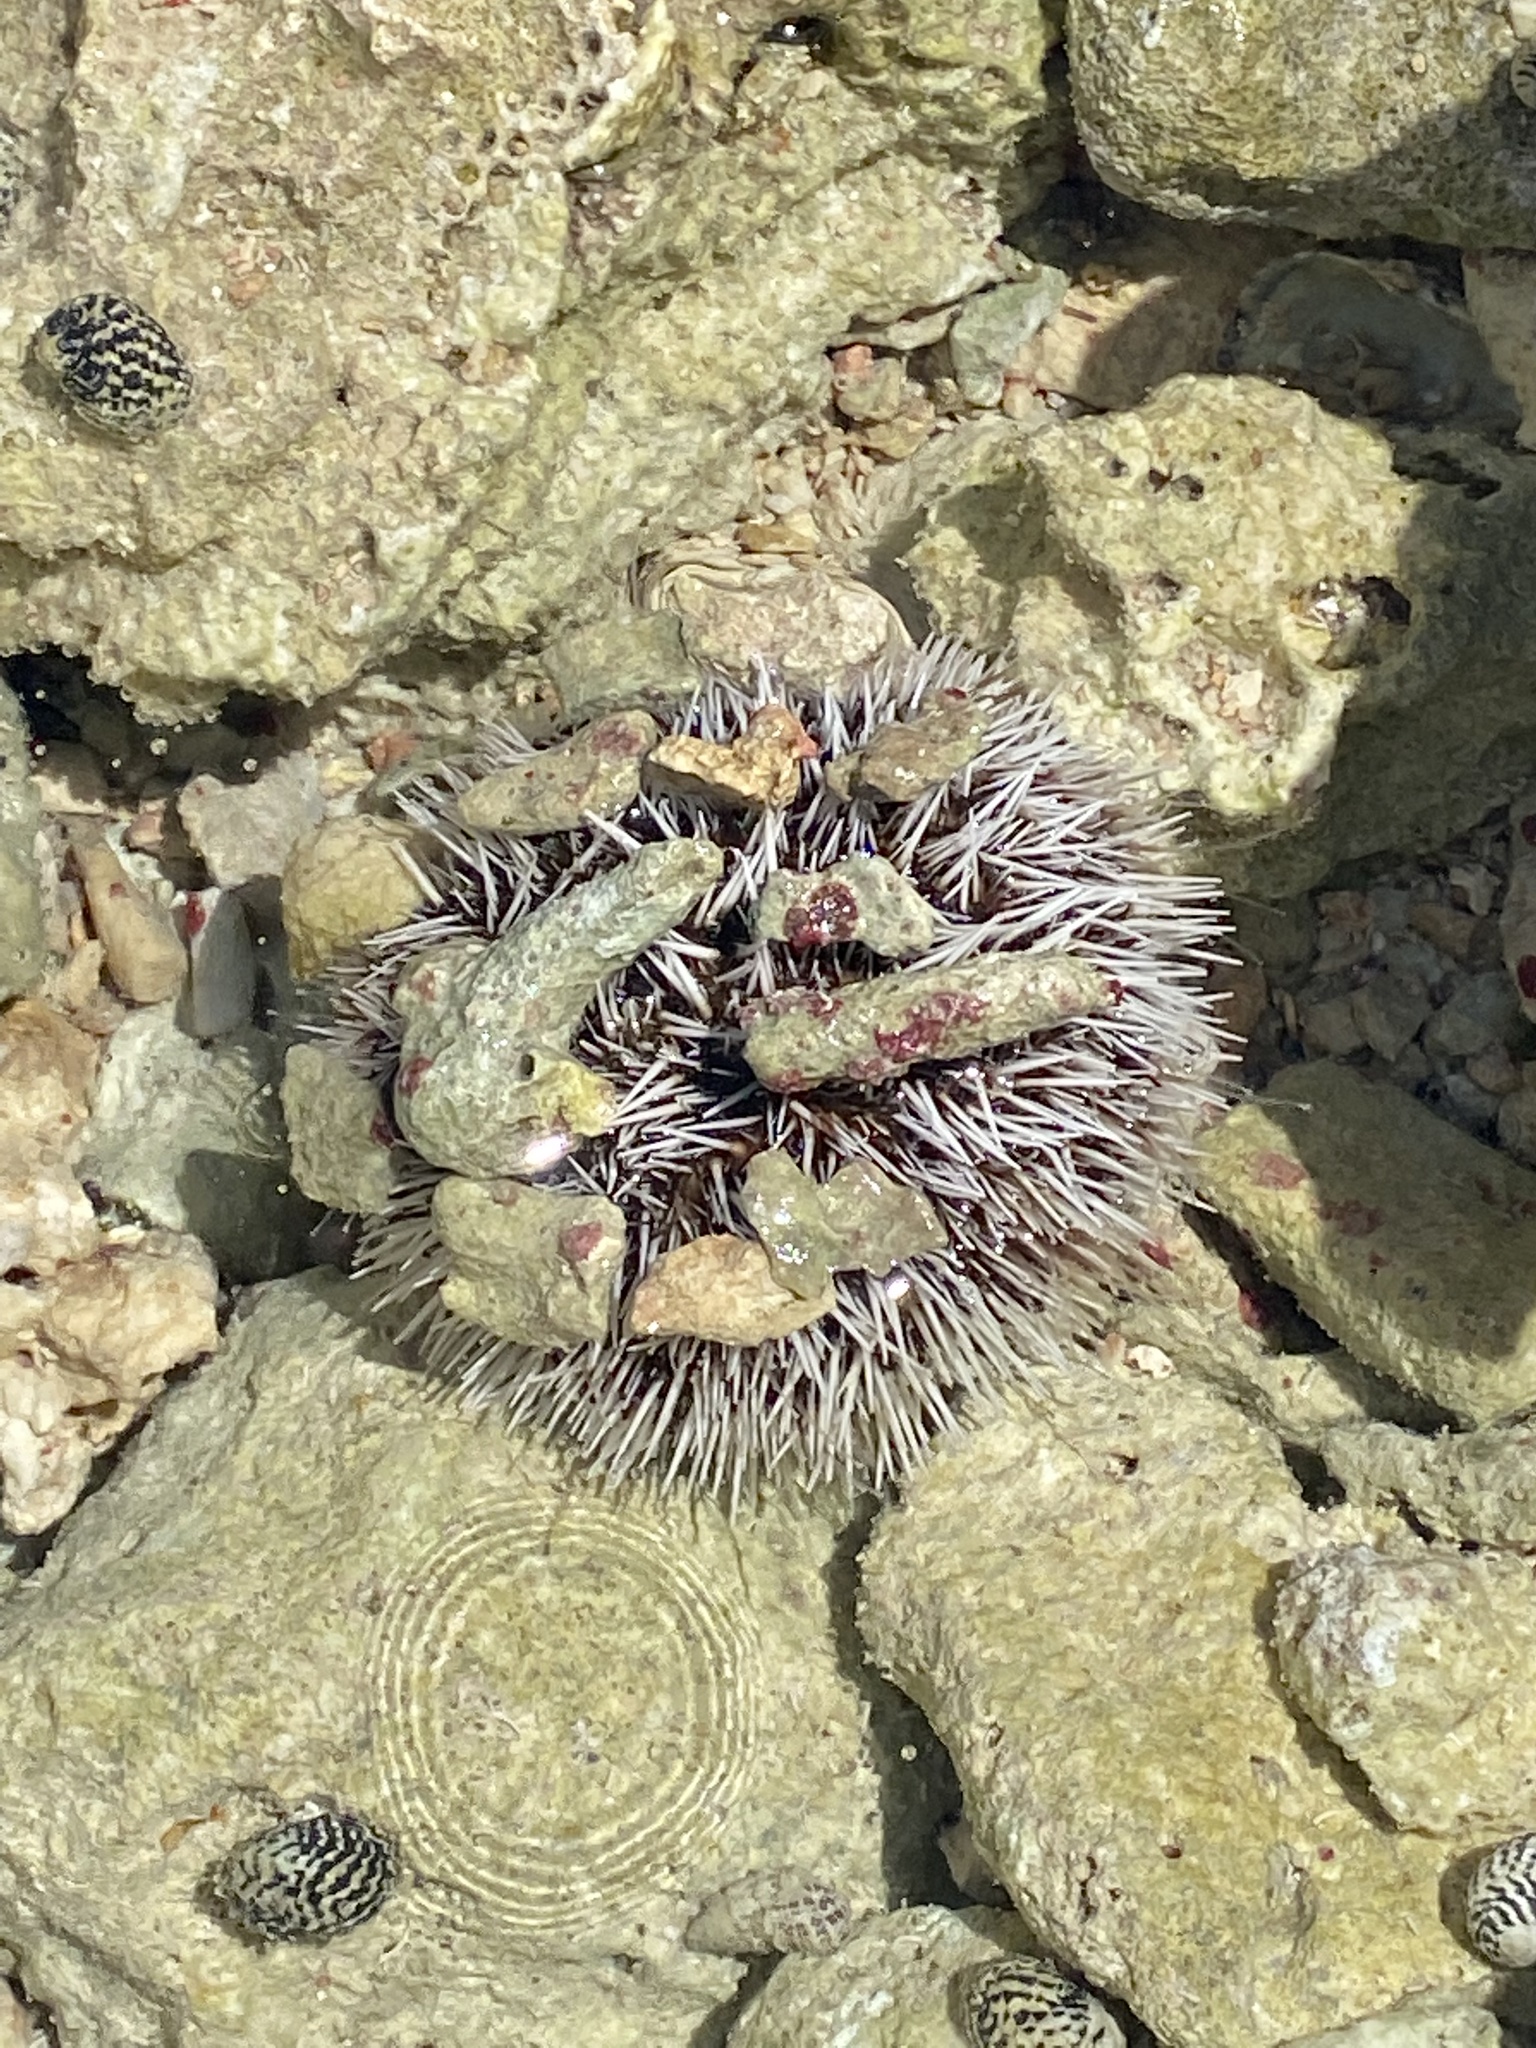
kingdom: Animalia
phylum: Echinodermata
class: Echinoidea
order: Camarodonta
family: Toxopneustidae
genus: Tripneustes
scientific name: Tripneustes ventricosus
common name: West indian sea egg
